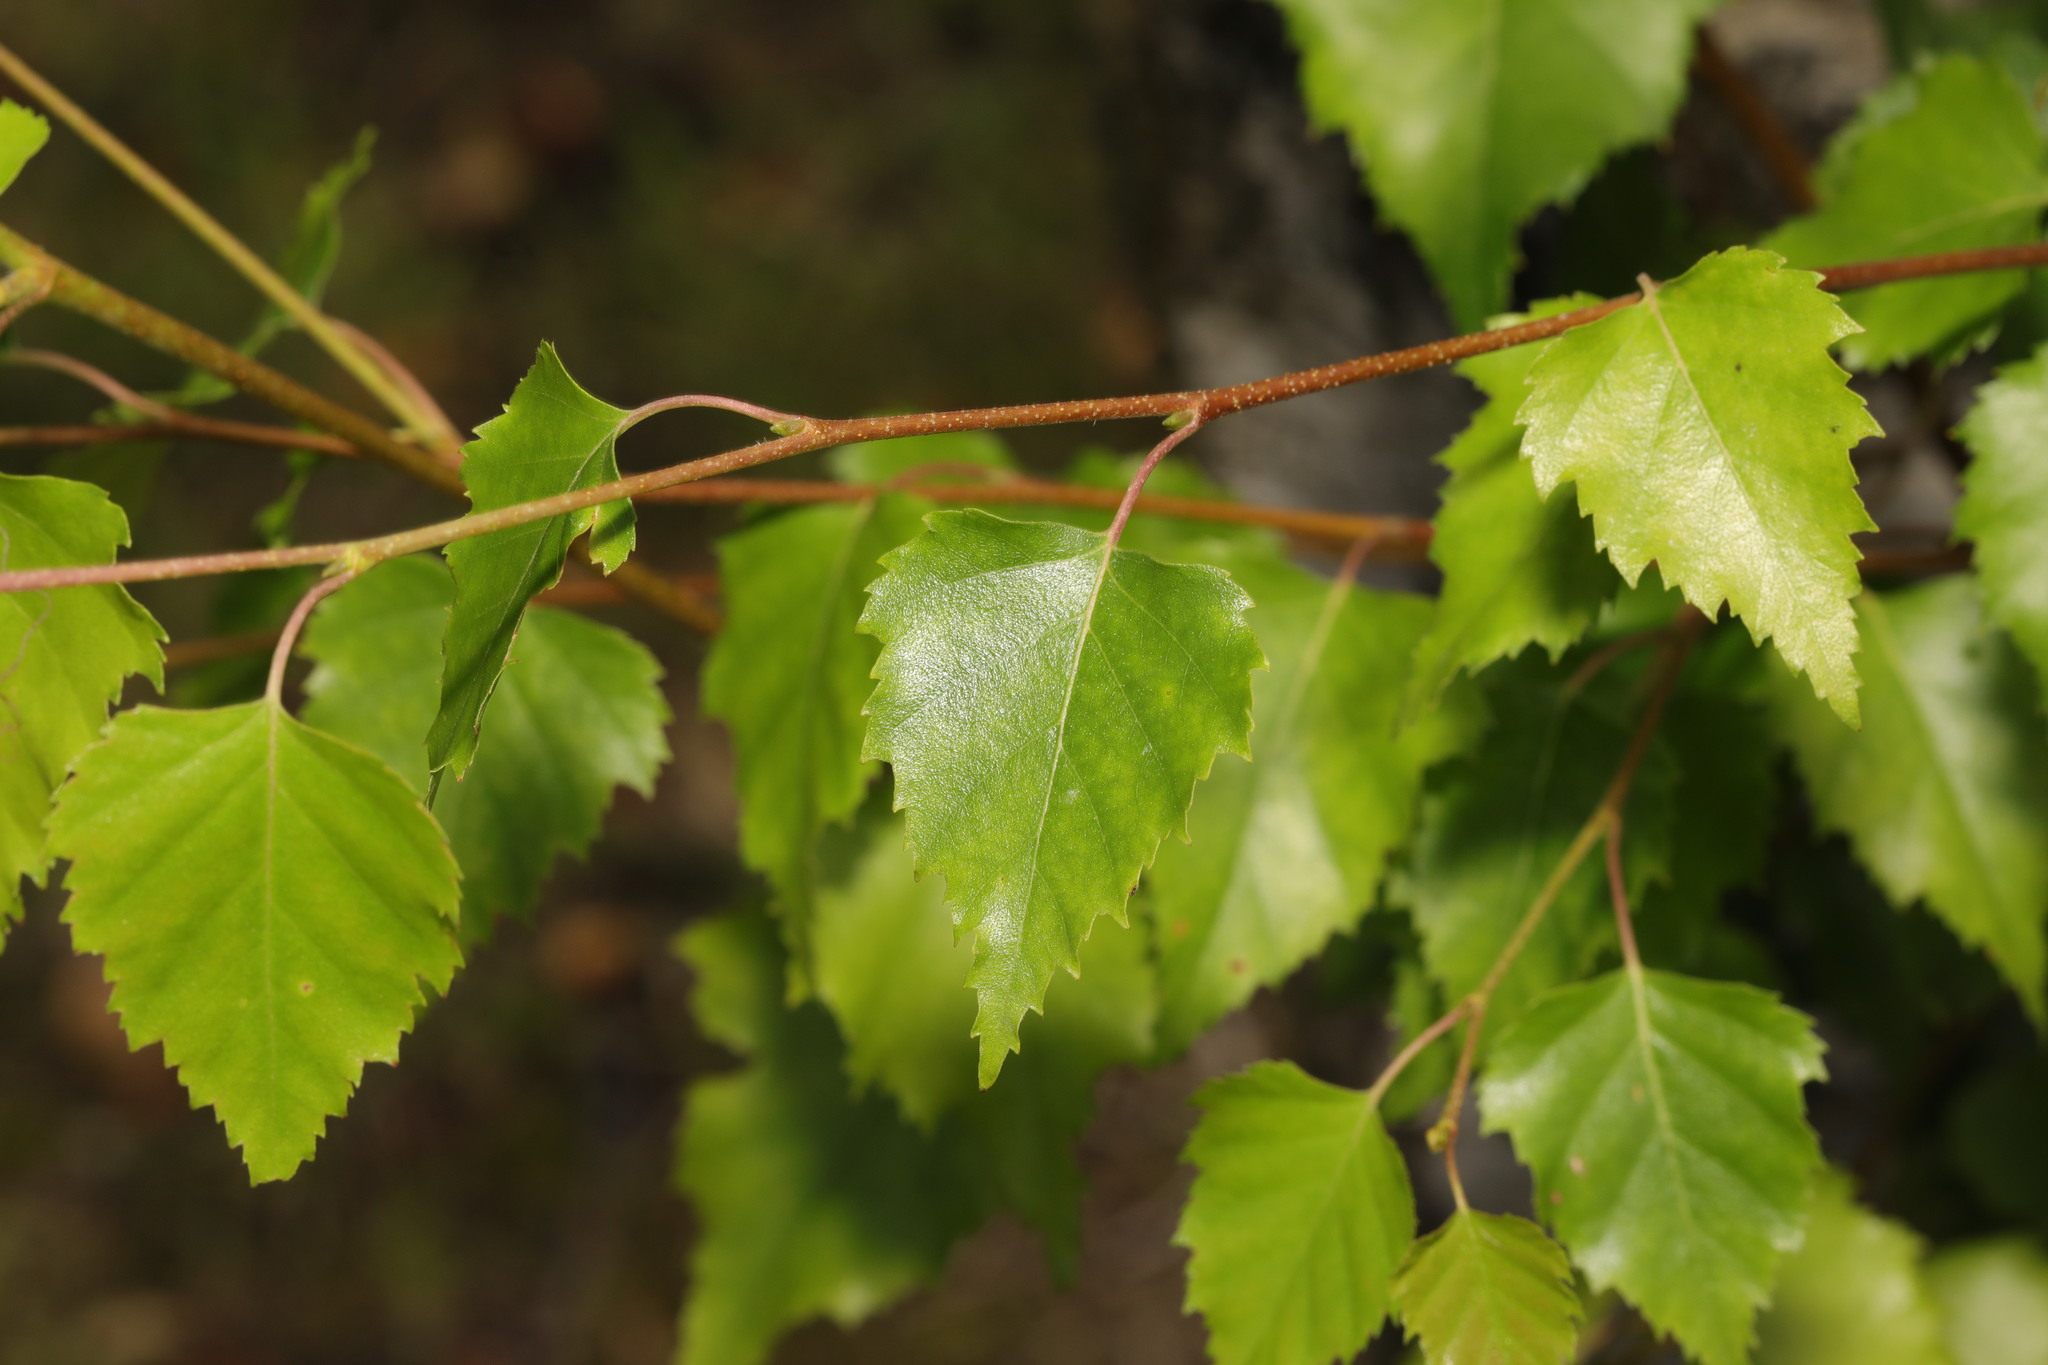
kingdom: Plantae
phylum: Tracheophyta
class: Magnoliopsida
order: Fagales
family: Betulaceae
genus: Betula
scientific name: Betula pendula
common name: Silver birch
